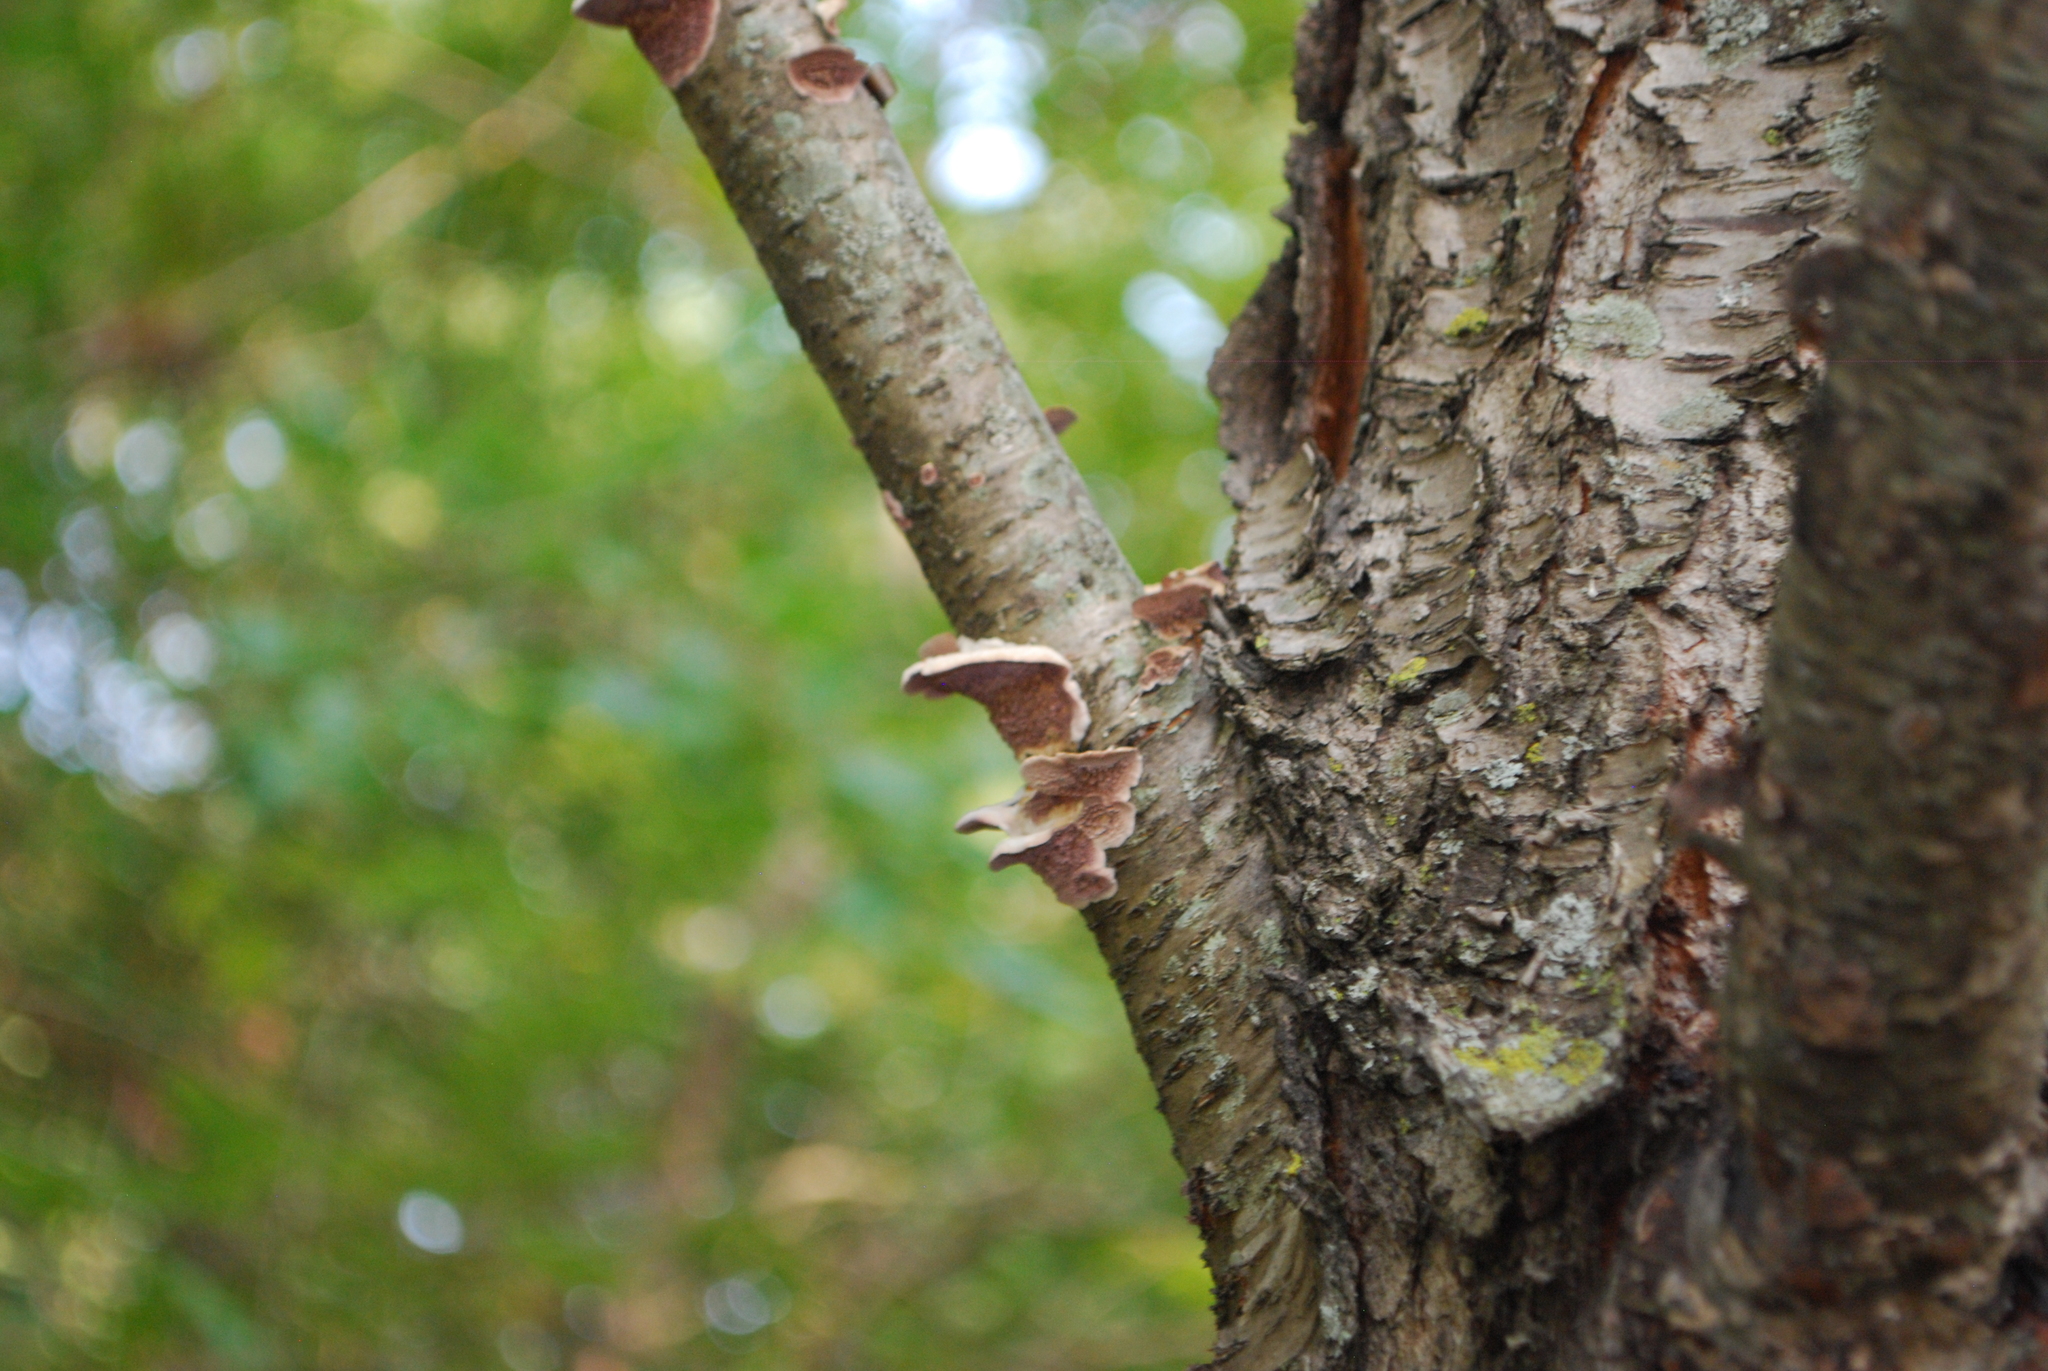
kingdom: Fungi
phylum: Basidiomycota
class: Agaricomycetes
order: Hymenochaetales
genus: Trichaptum
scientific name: Trichaptum biforme
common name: Violet-toothed polypore
